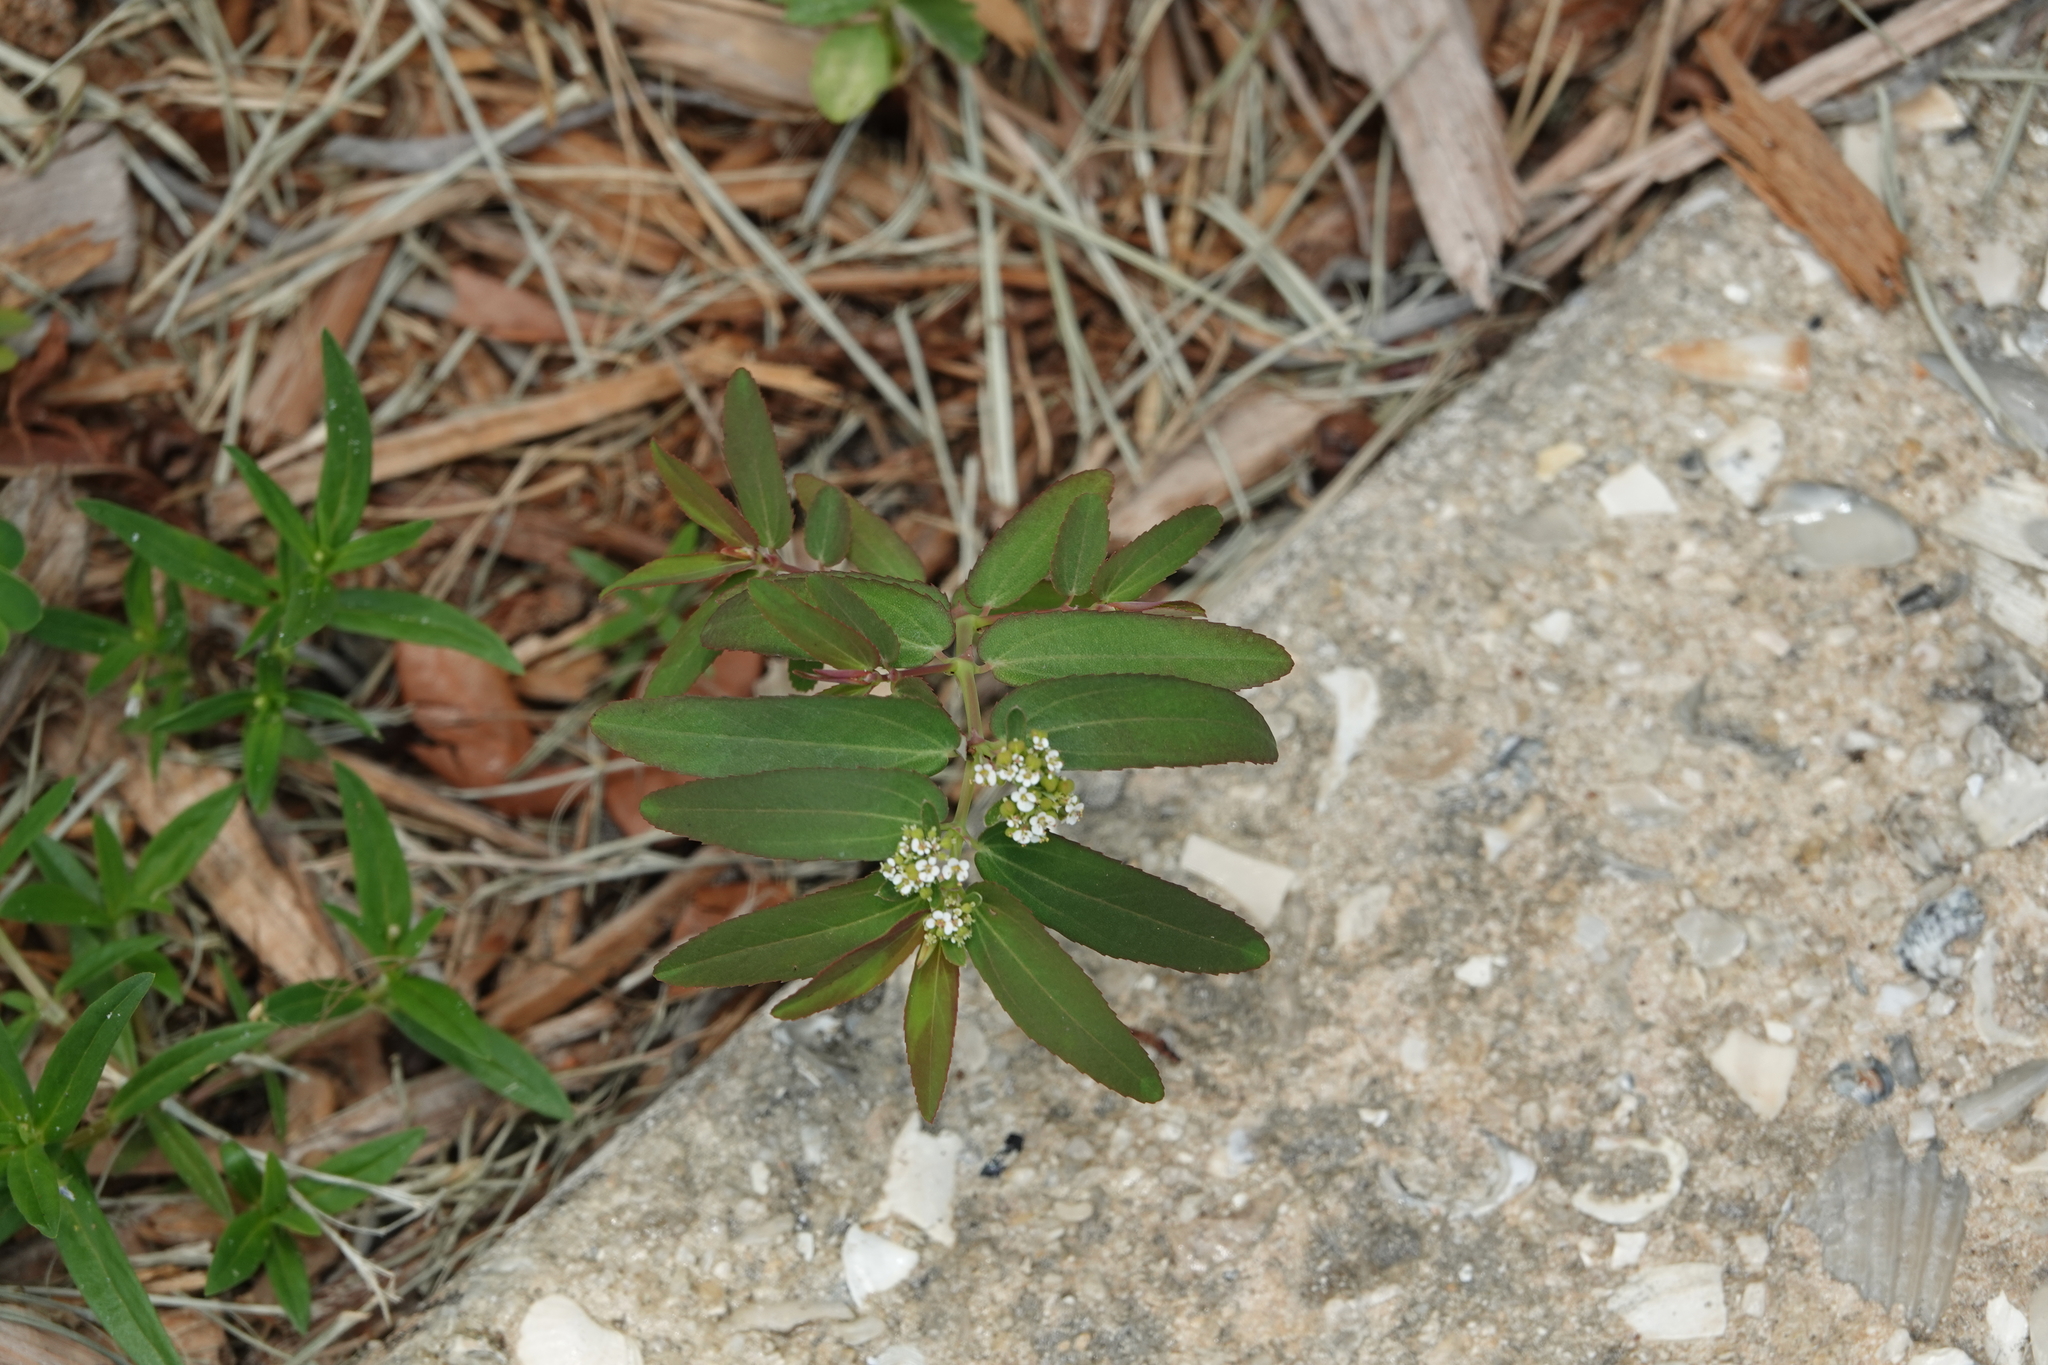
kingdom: Plantae
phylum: Tracheophyta
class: Magnoliopsida
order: Malpighiales
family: Euphorbiaceae
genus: Euphorbia
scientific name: Euphorbia hyssopifolia
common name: Hyssopleaf sandmat
